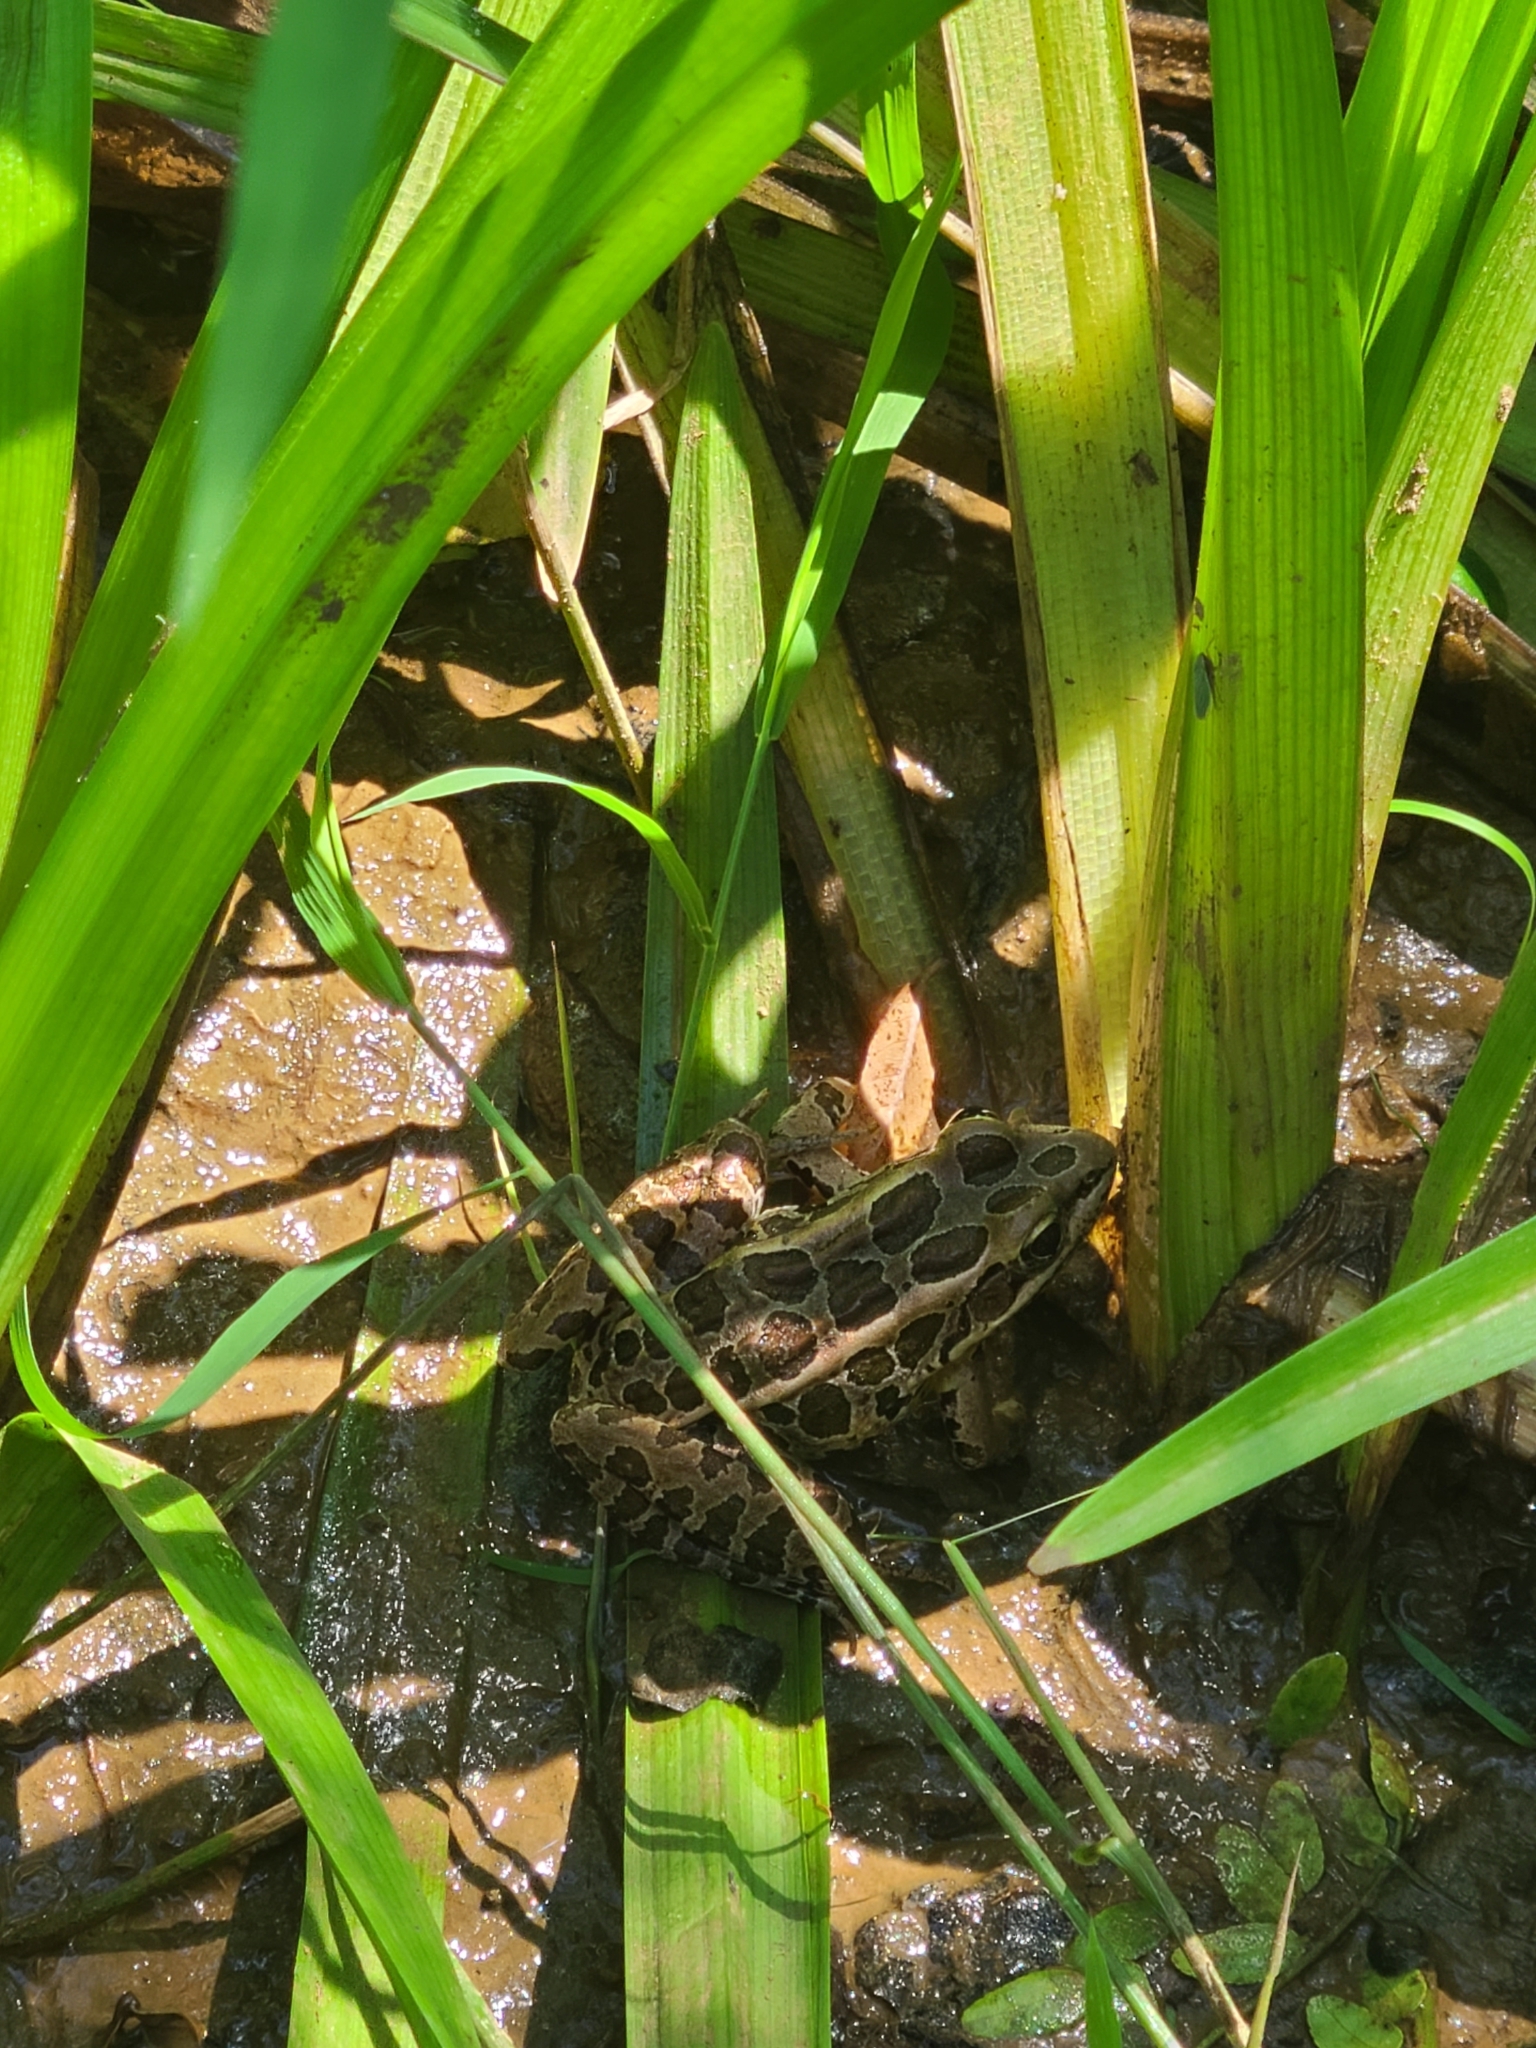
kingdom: Animalia
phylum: Chordata
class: Amphibia
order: Anura
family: Ranidae
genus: Lithobates
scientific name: Lithobates palustris
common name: Pickerel frog
